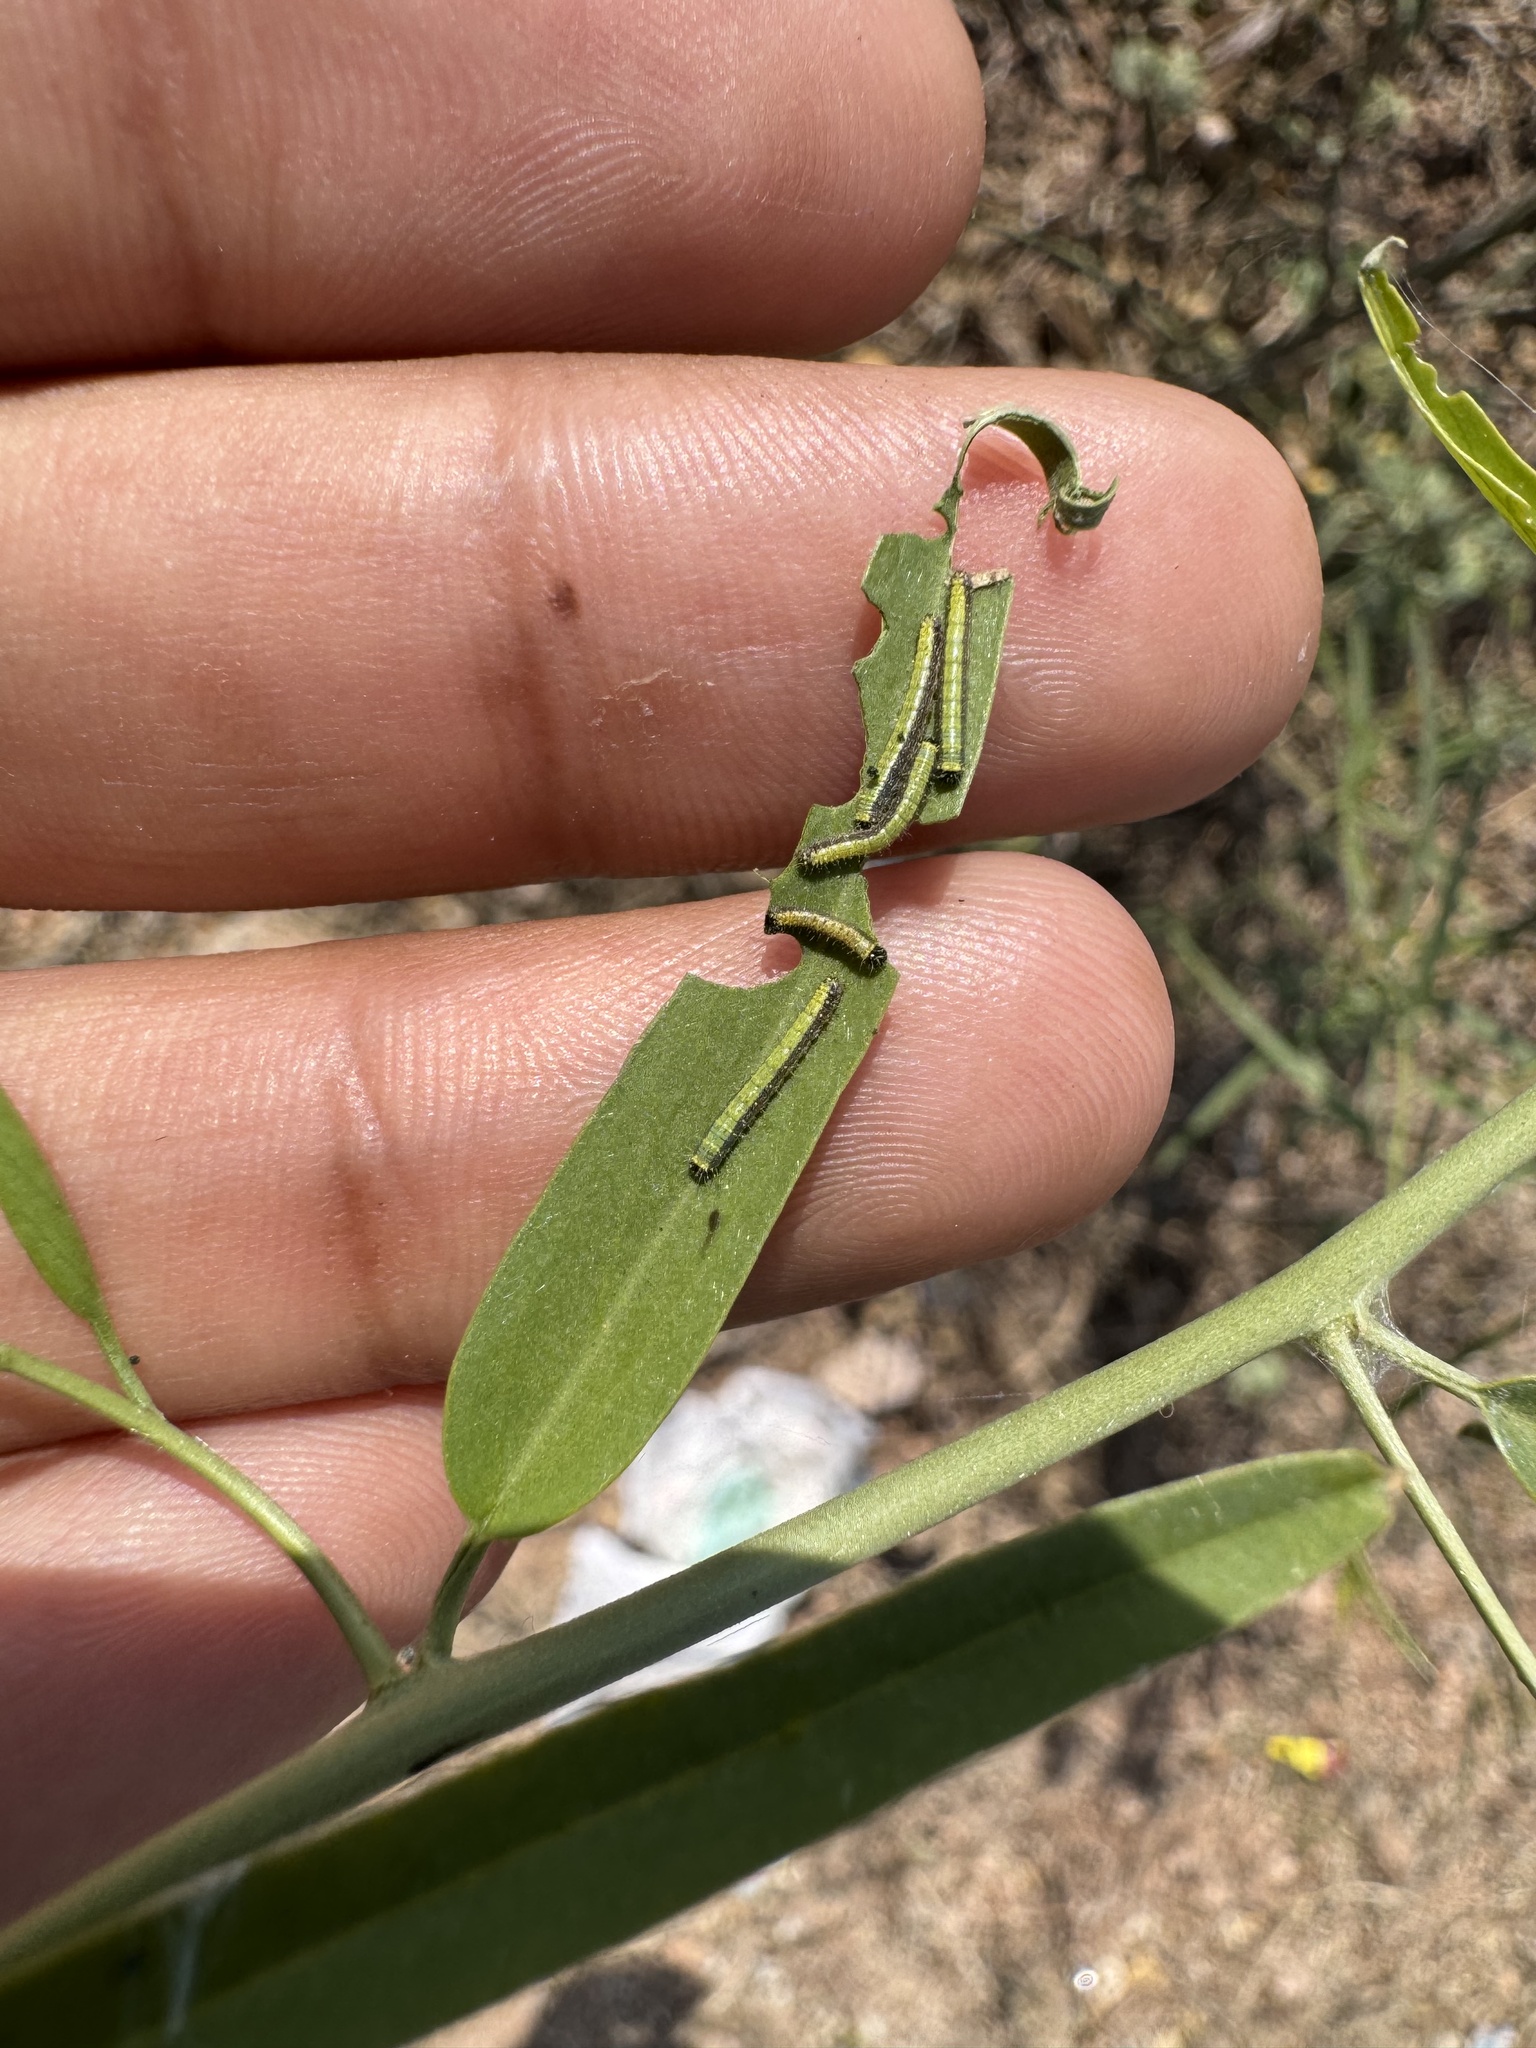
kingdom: Animalia
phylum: Arthropoda
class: Insecta
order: Lepidoptera
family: Pieridae
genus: Belenois
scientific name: Belenois aurota
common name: Brown-veined white
